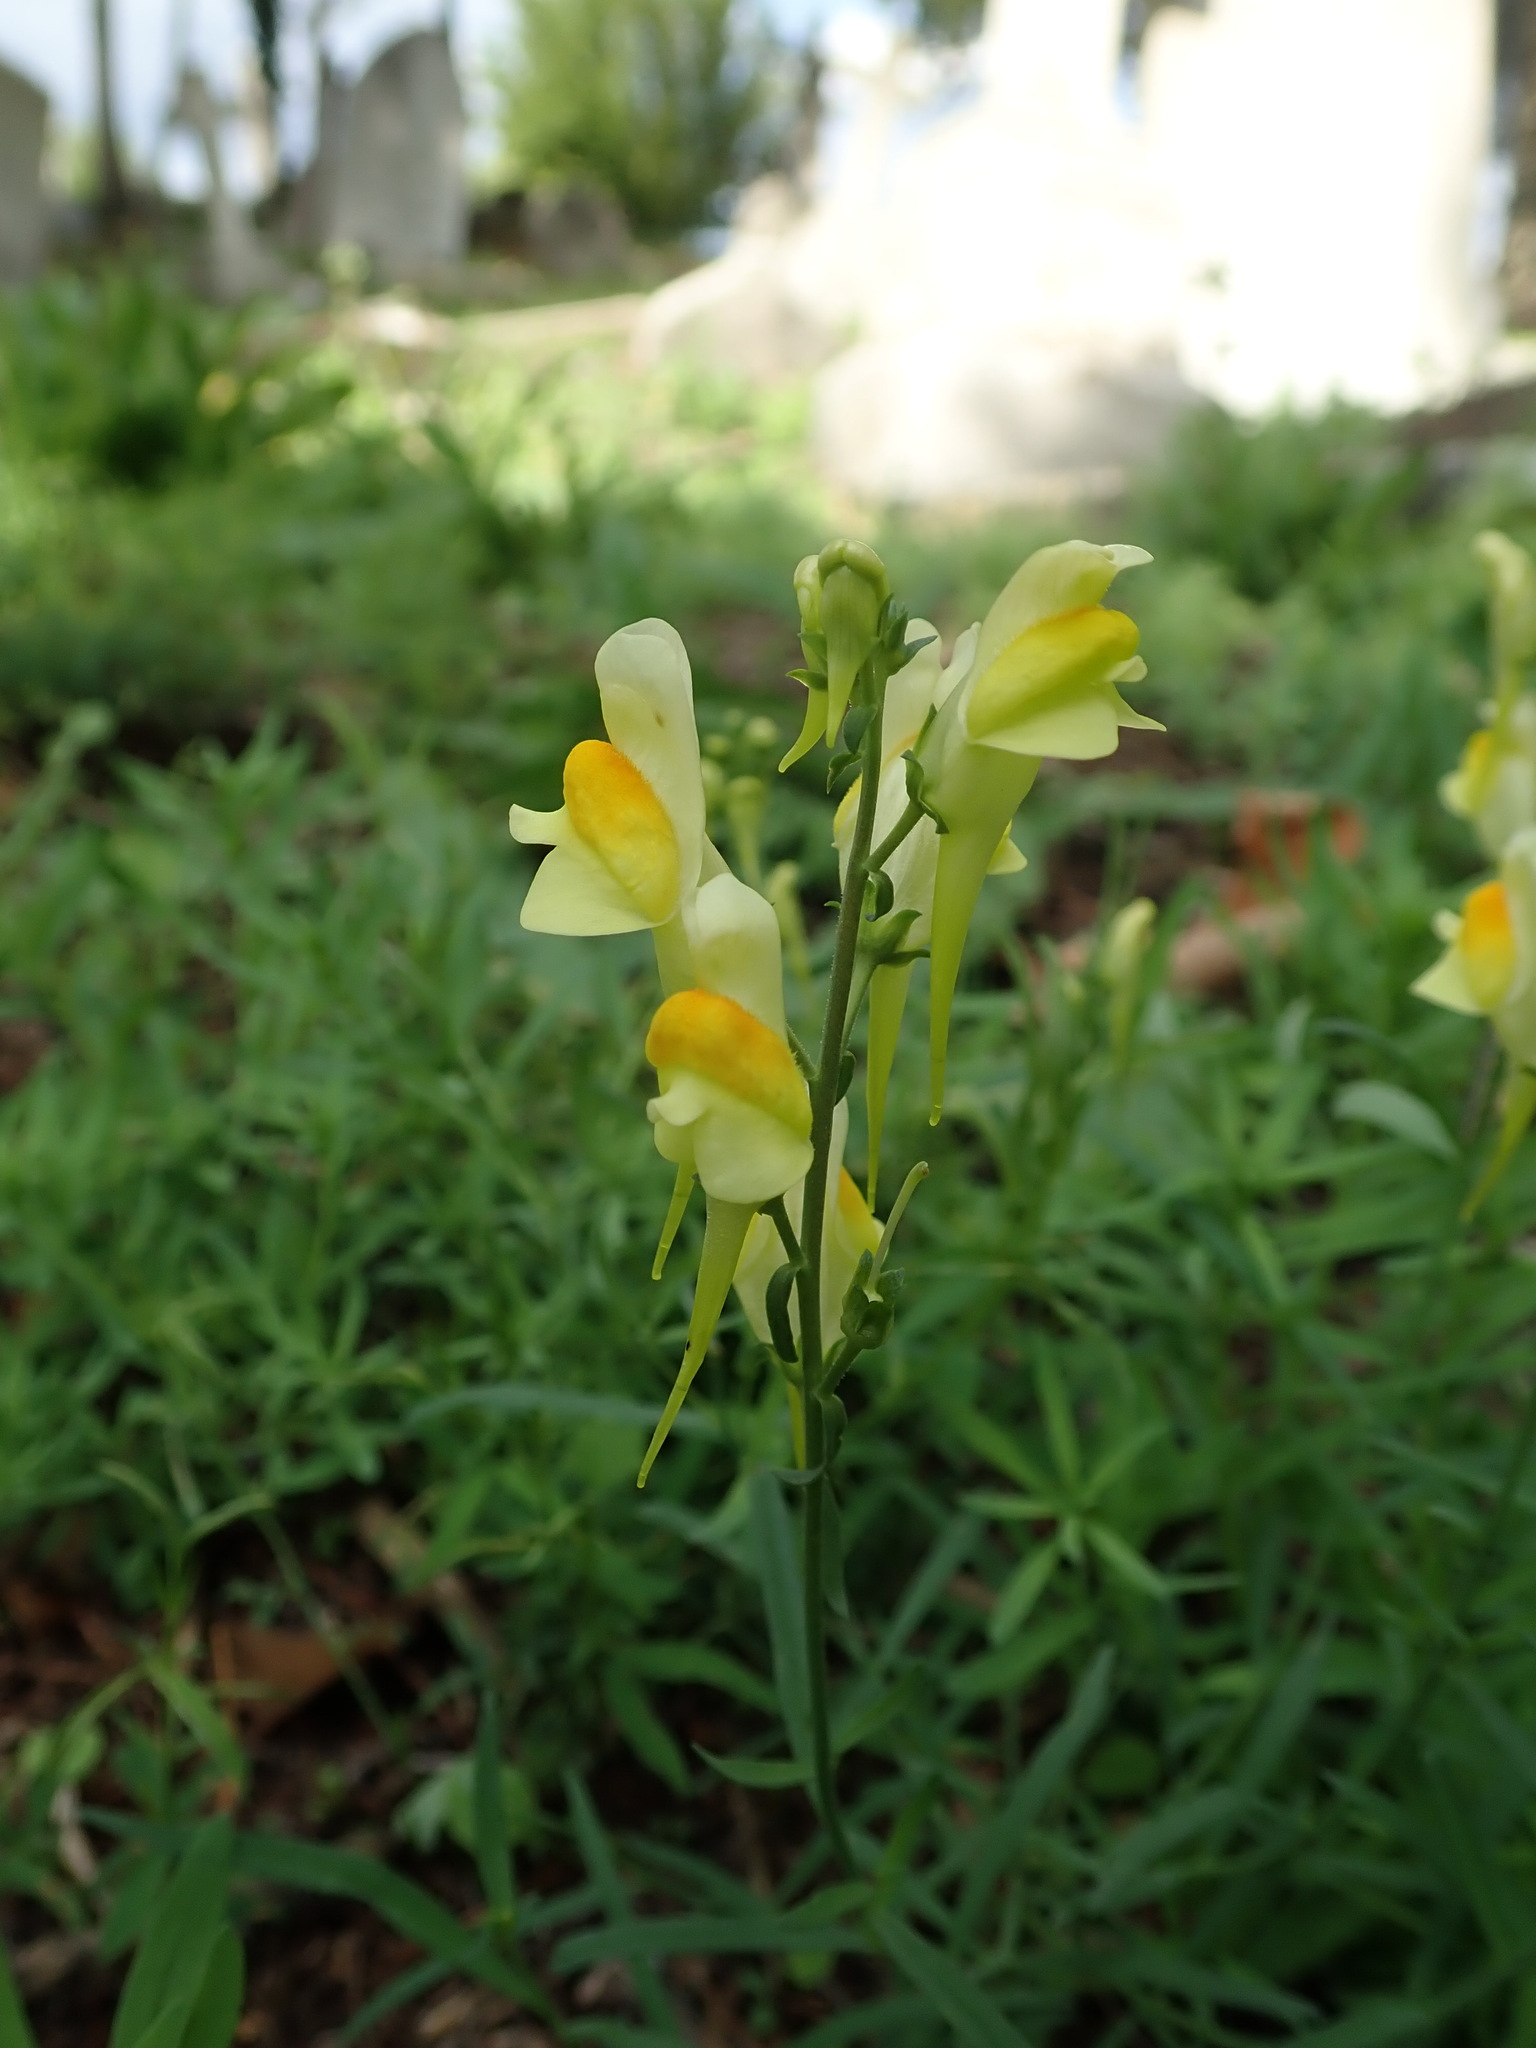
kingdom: Plantae
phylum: Tracheophyta
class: Magnoliopsida
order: Lamiales
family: Plantaginaceae
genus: Linaria
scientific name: Linaria vulgaris
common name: Butter and eggs
